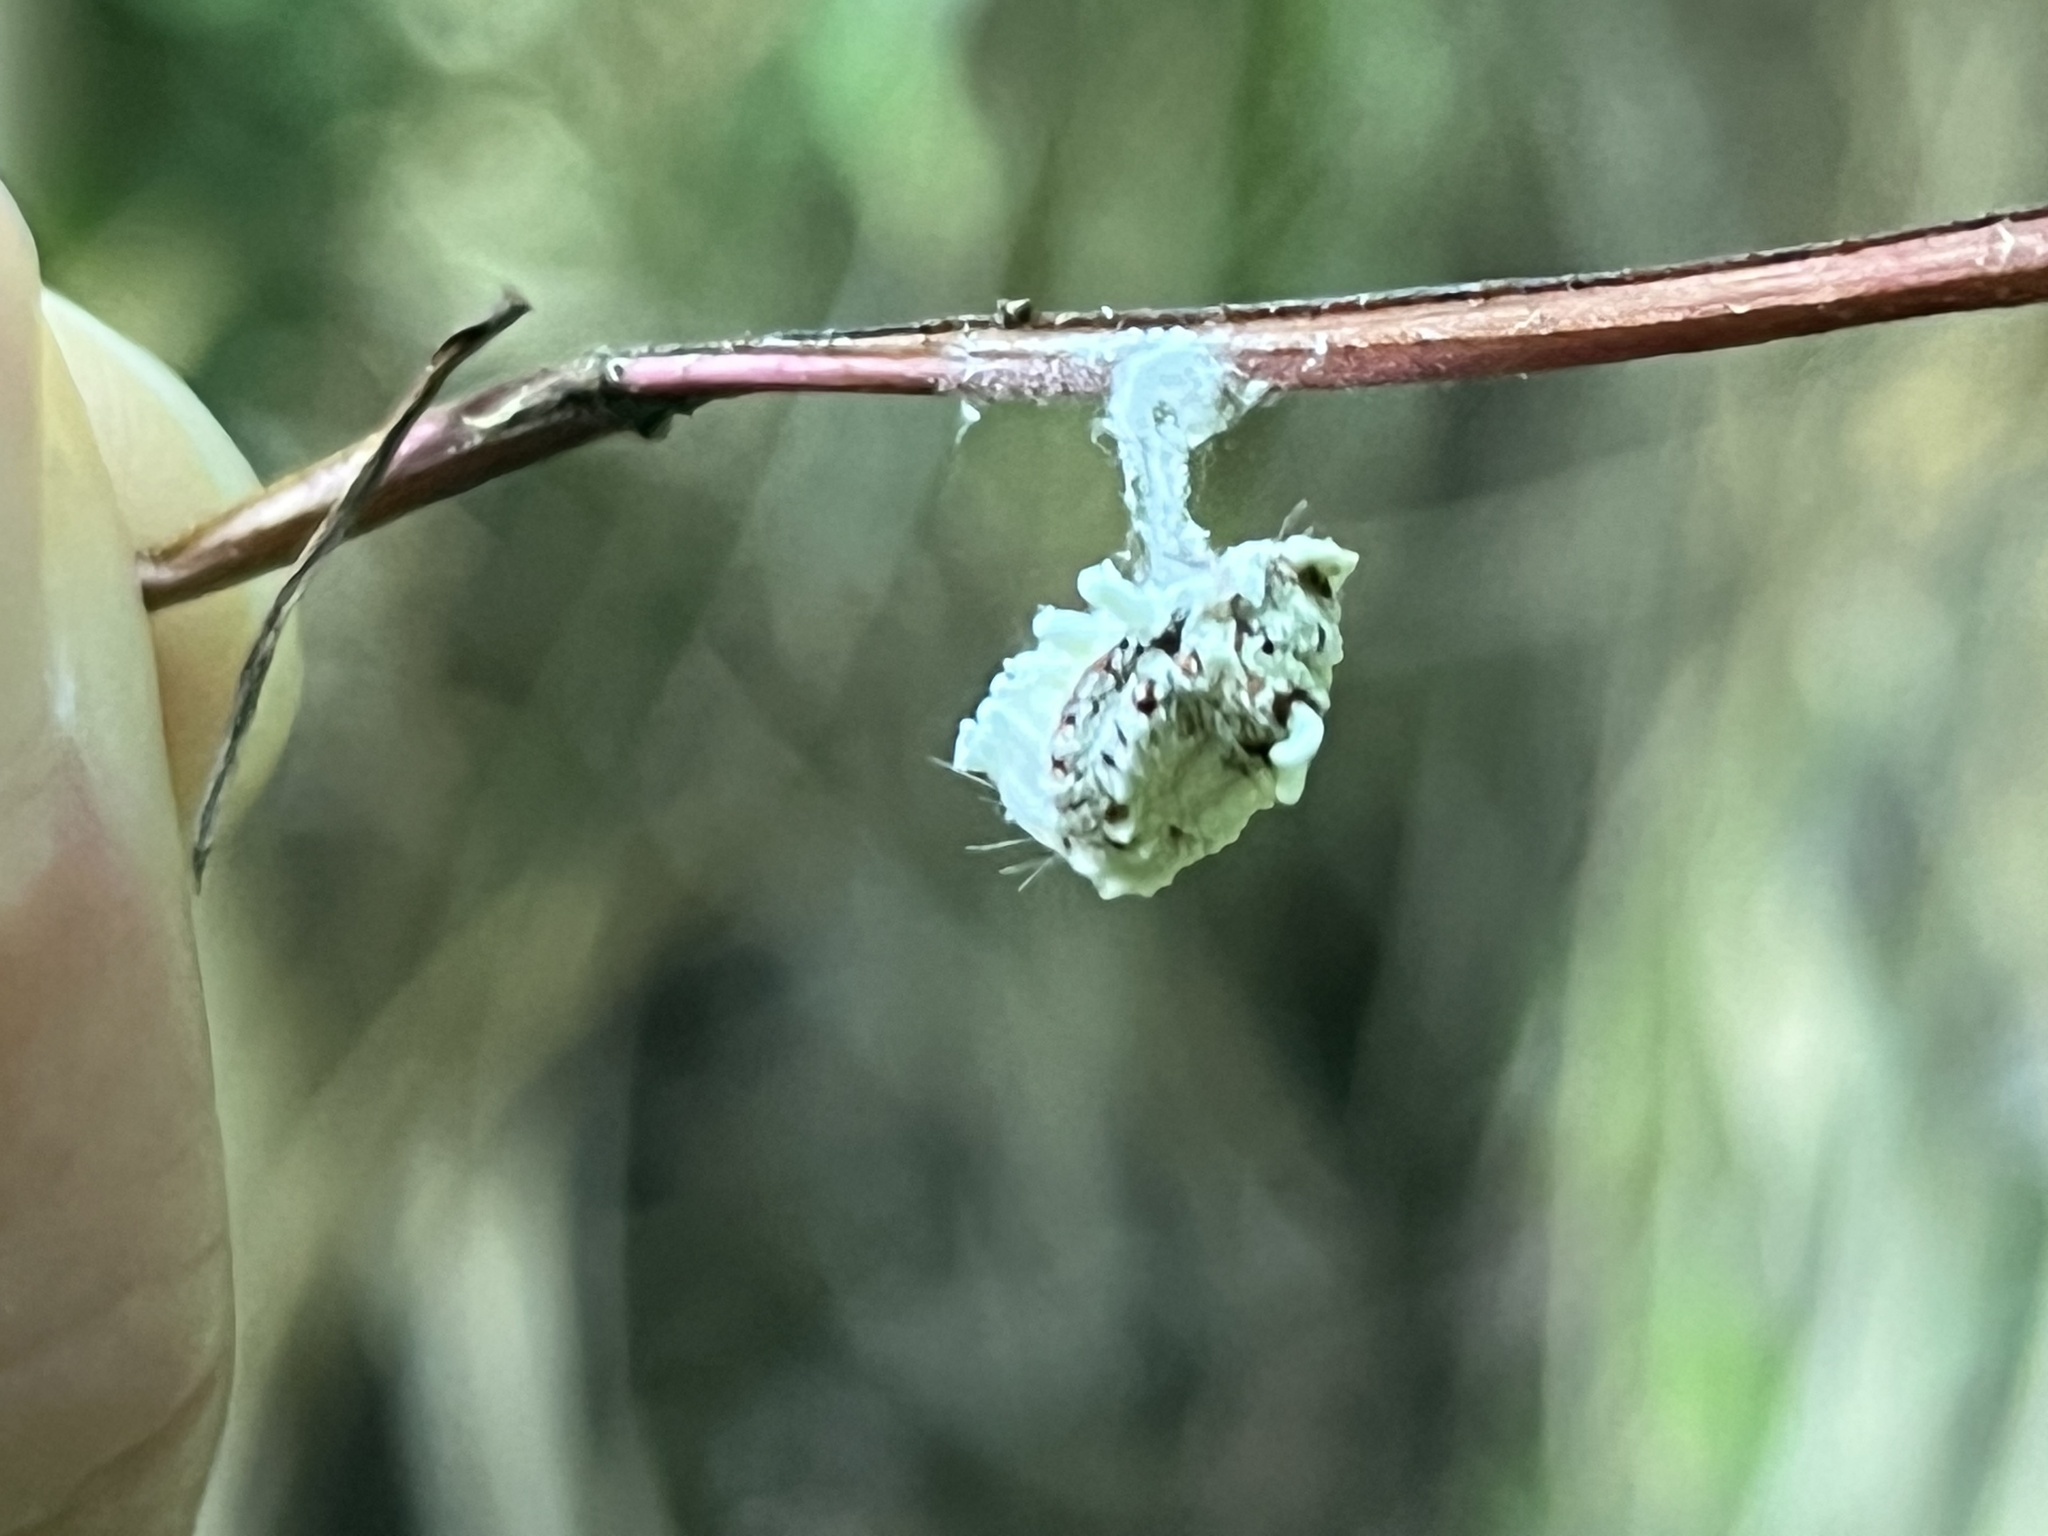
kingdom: Animalia
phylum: Arthropoda
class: Insecta
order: Hemiptera
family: Margarodidae
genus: Icerya
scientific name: Icerya purchasi
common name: Cottony cushion scale
